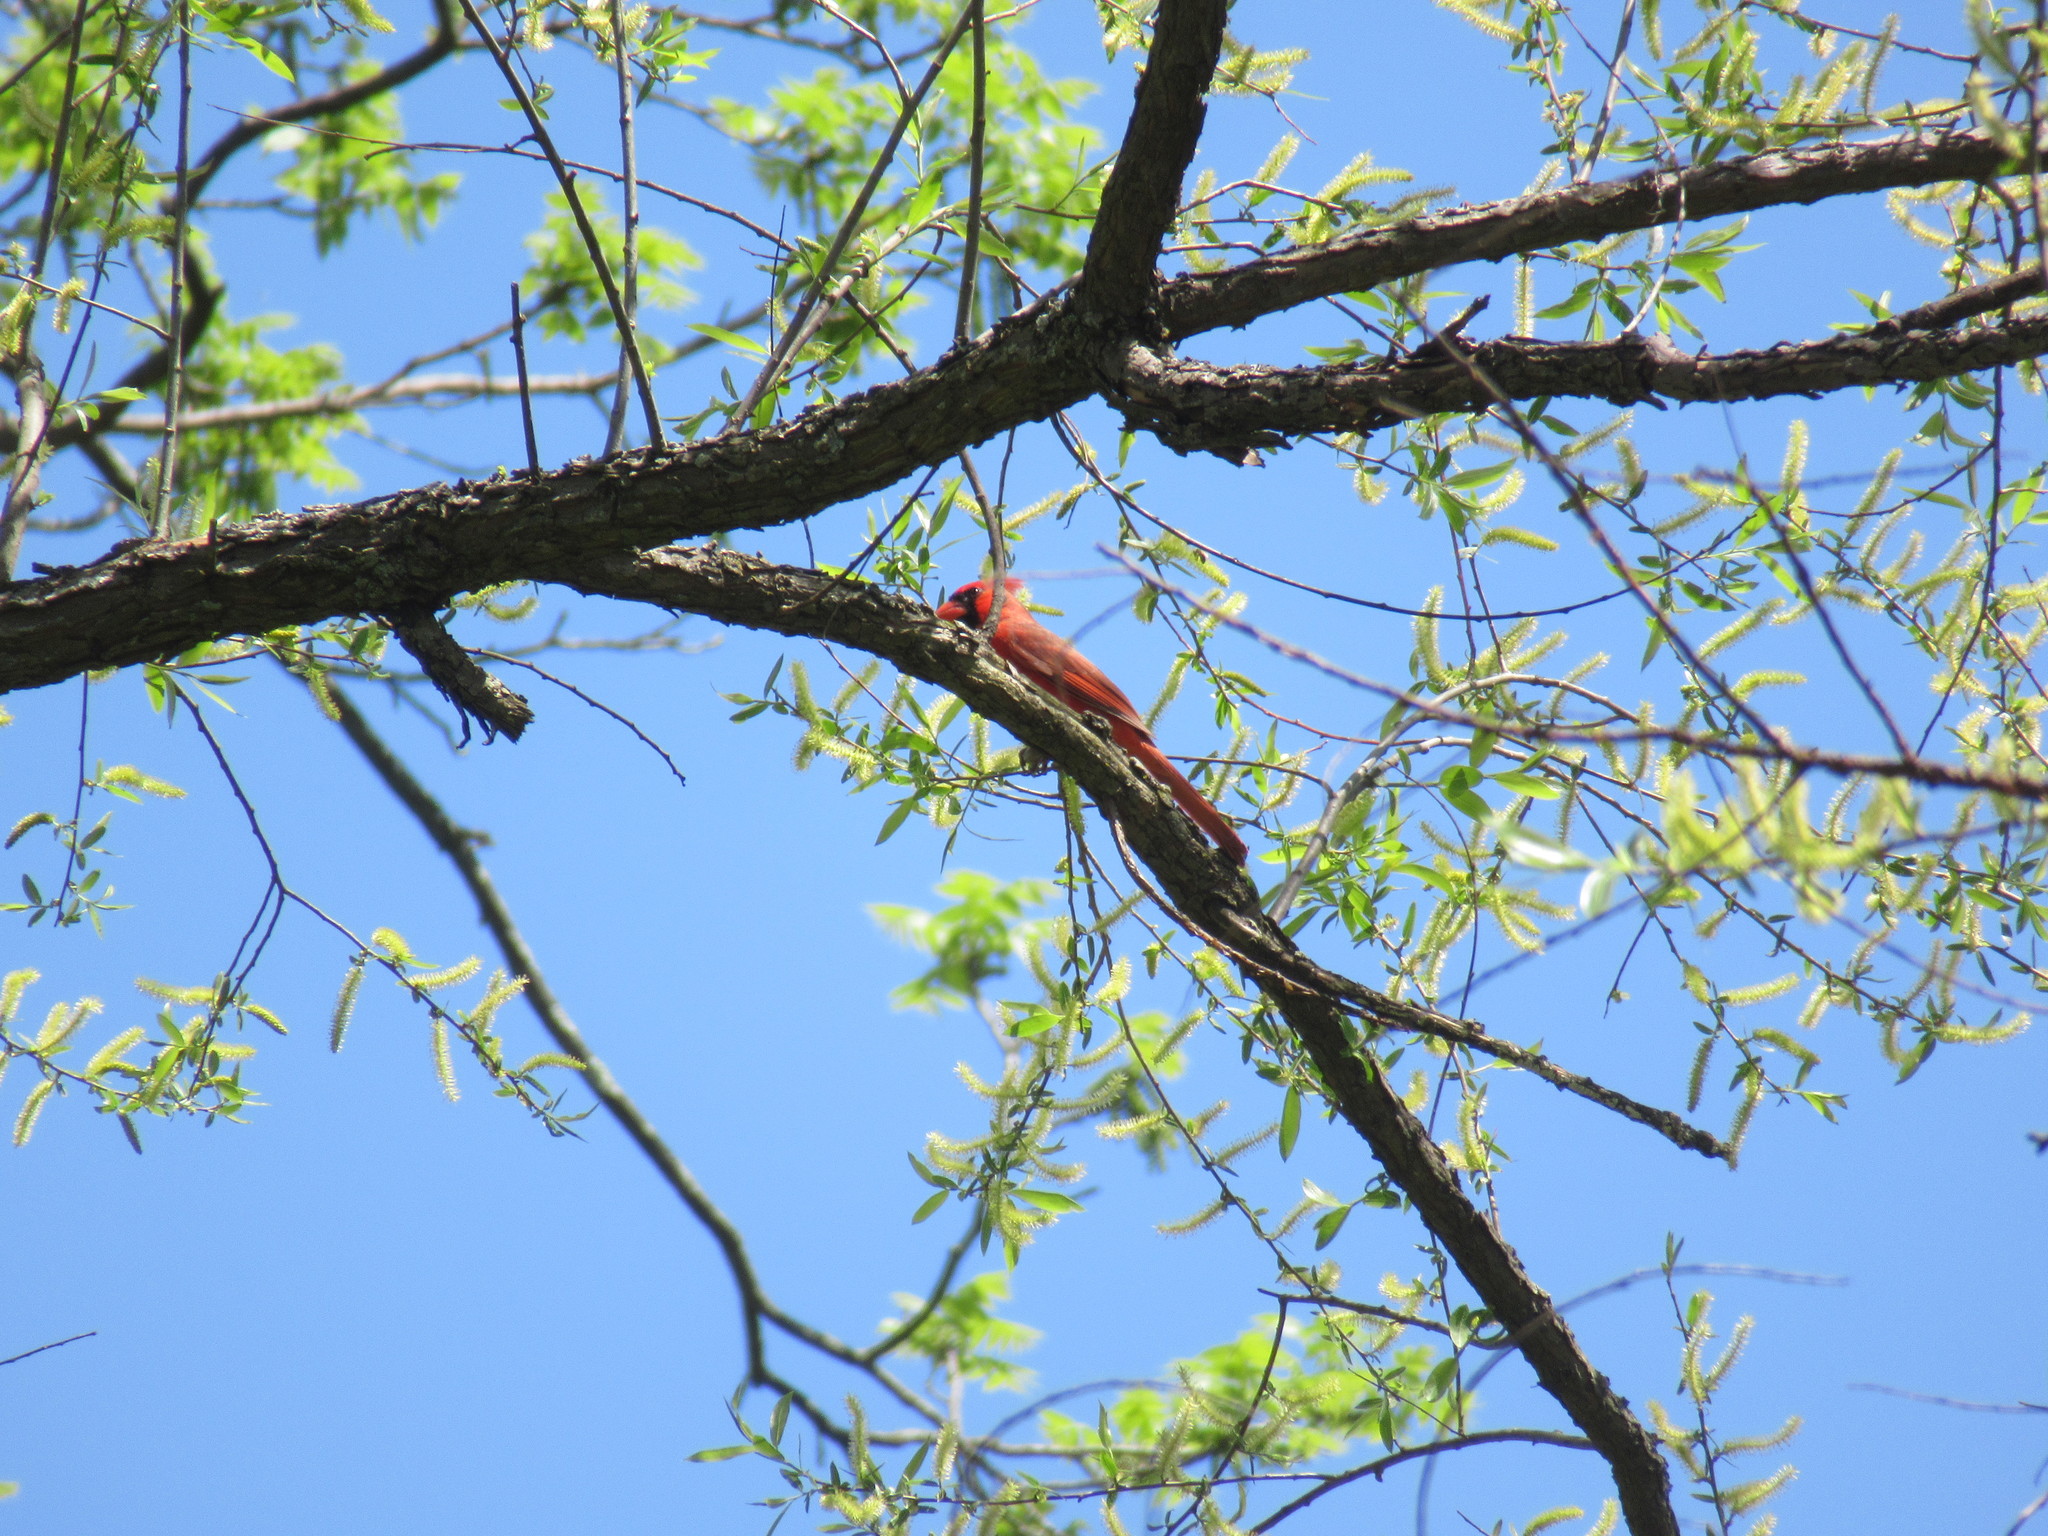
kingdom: Animalia
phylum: Chordata
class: Aves
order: Passeriformes
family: Cardinalidae
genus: Cardinalis
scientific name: Cardinalis cardinalis
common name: Northern cardinal
